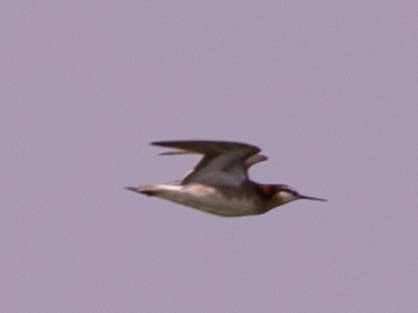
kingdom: Animalia
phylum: Chordata
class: Aves
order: Charadriiformes
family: Scolopacidae
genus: Phalaropus
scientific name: Phalaropus tricolor
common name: Wilson's phalarope
